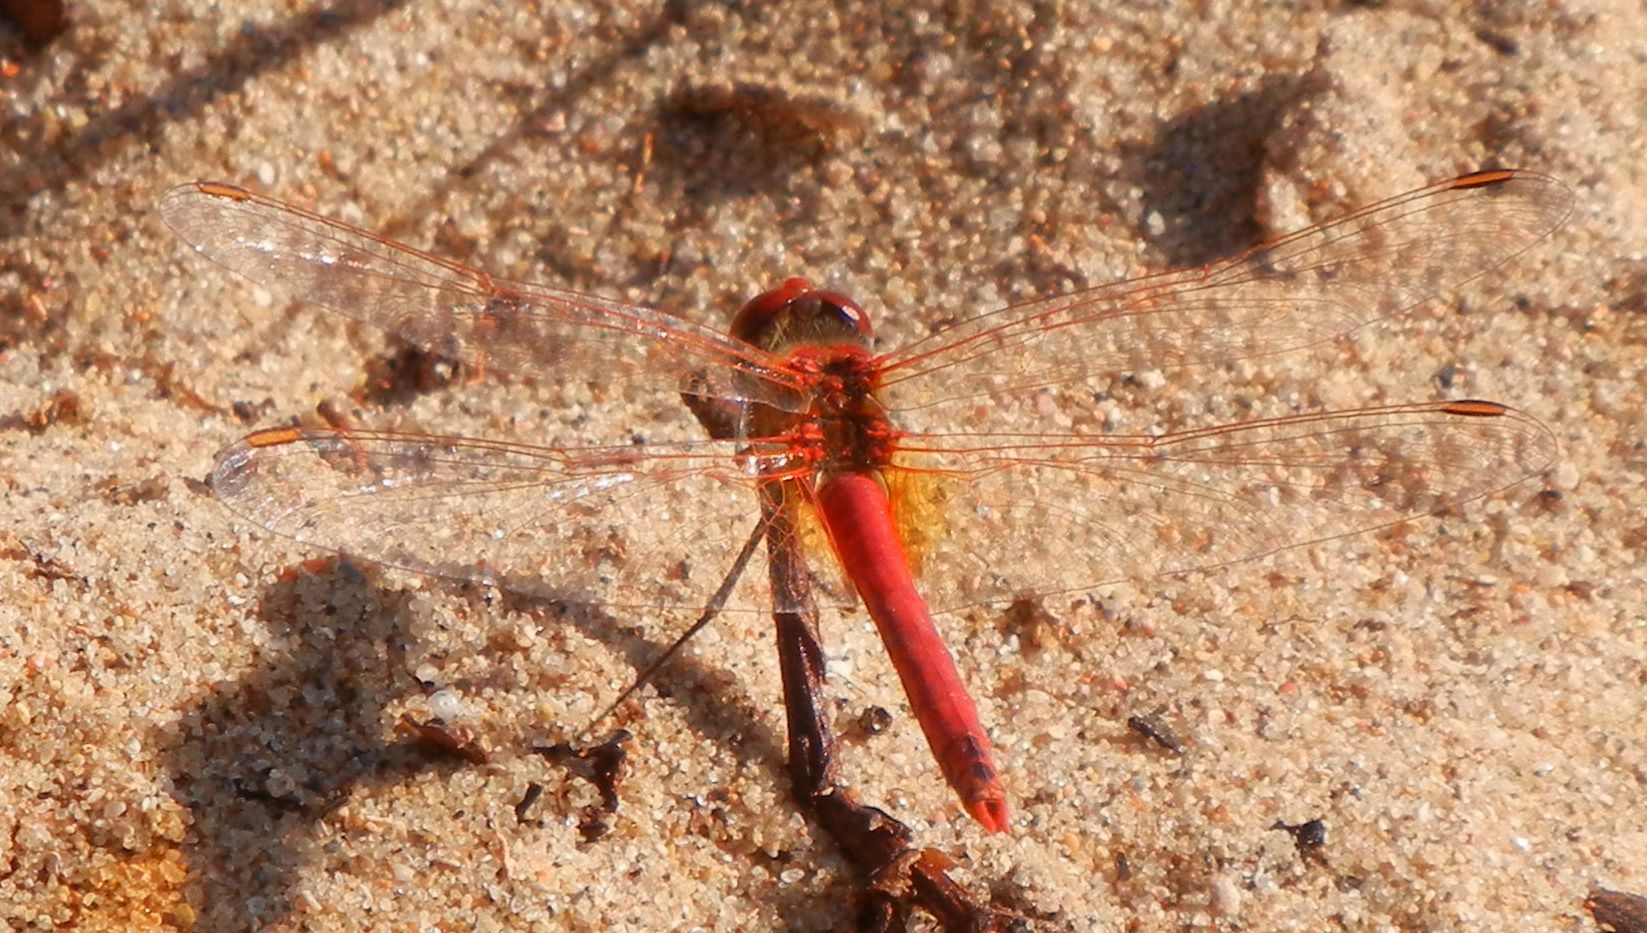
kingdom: Animalia
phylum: Arthropoda
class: Insecta
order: Odonata
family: Libellulidae
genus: Sympetrum
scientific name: Sympetrum fonscolombii
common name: Red-veined darter
